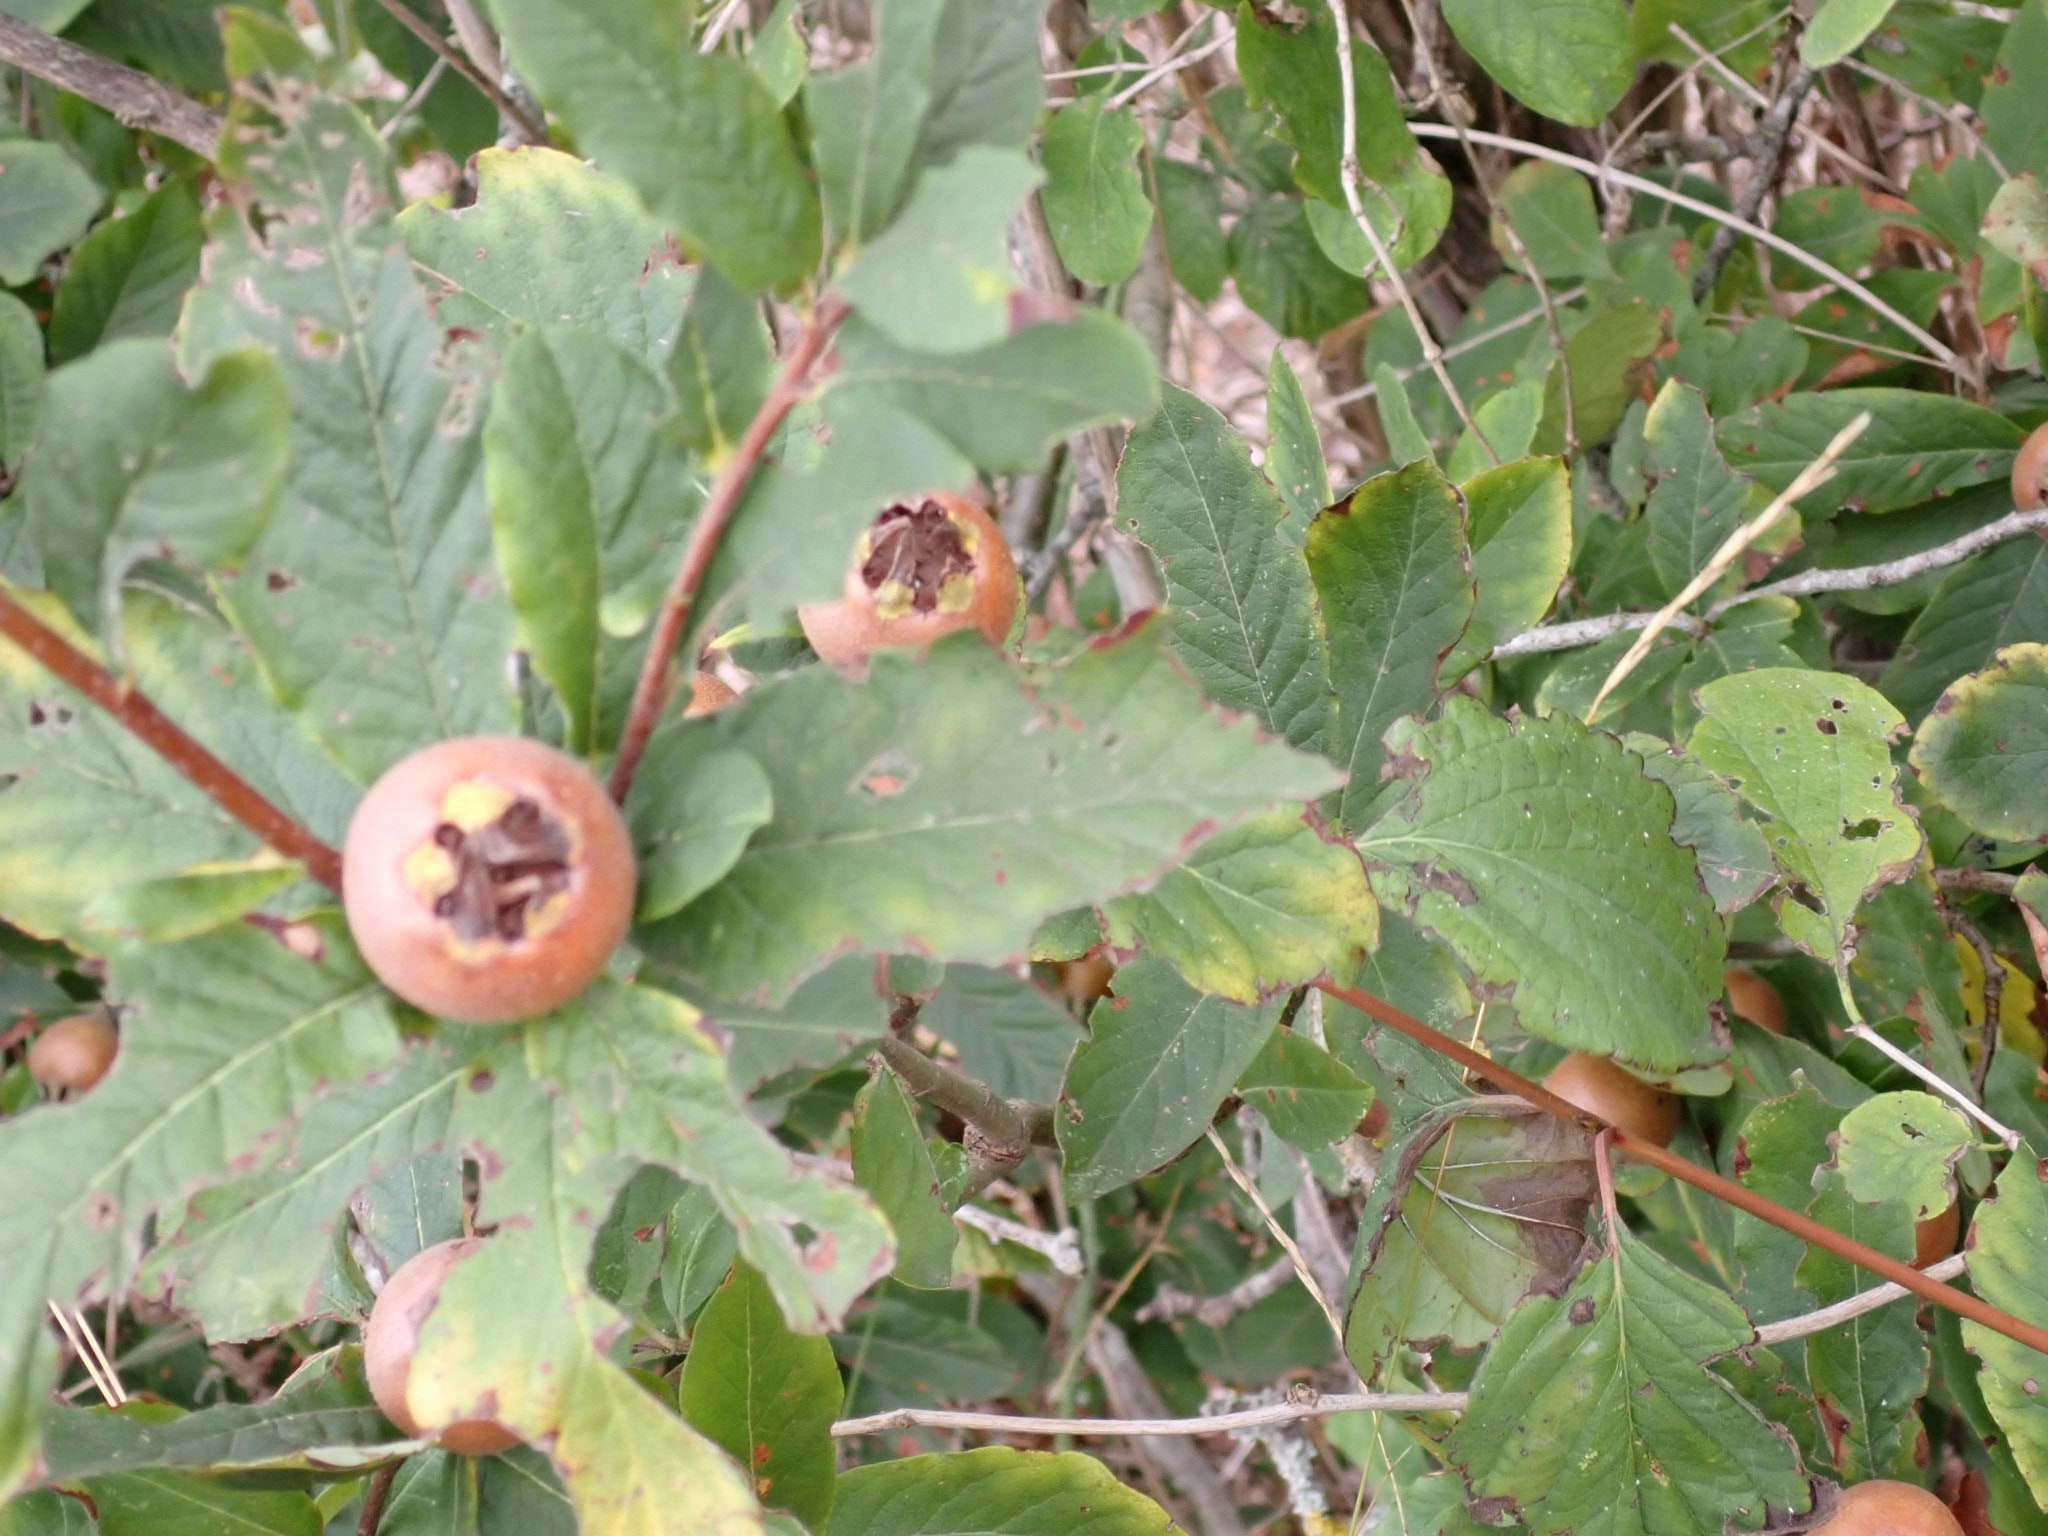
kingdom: Plantae
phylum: Tracheophyta
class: Magnoliopsida
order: Rosales
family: Rosaceae
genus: Mespilus
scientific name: Mespilus germanica
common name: Medlar
